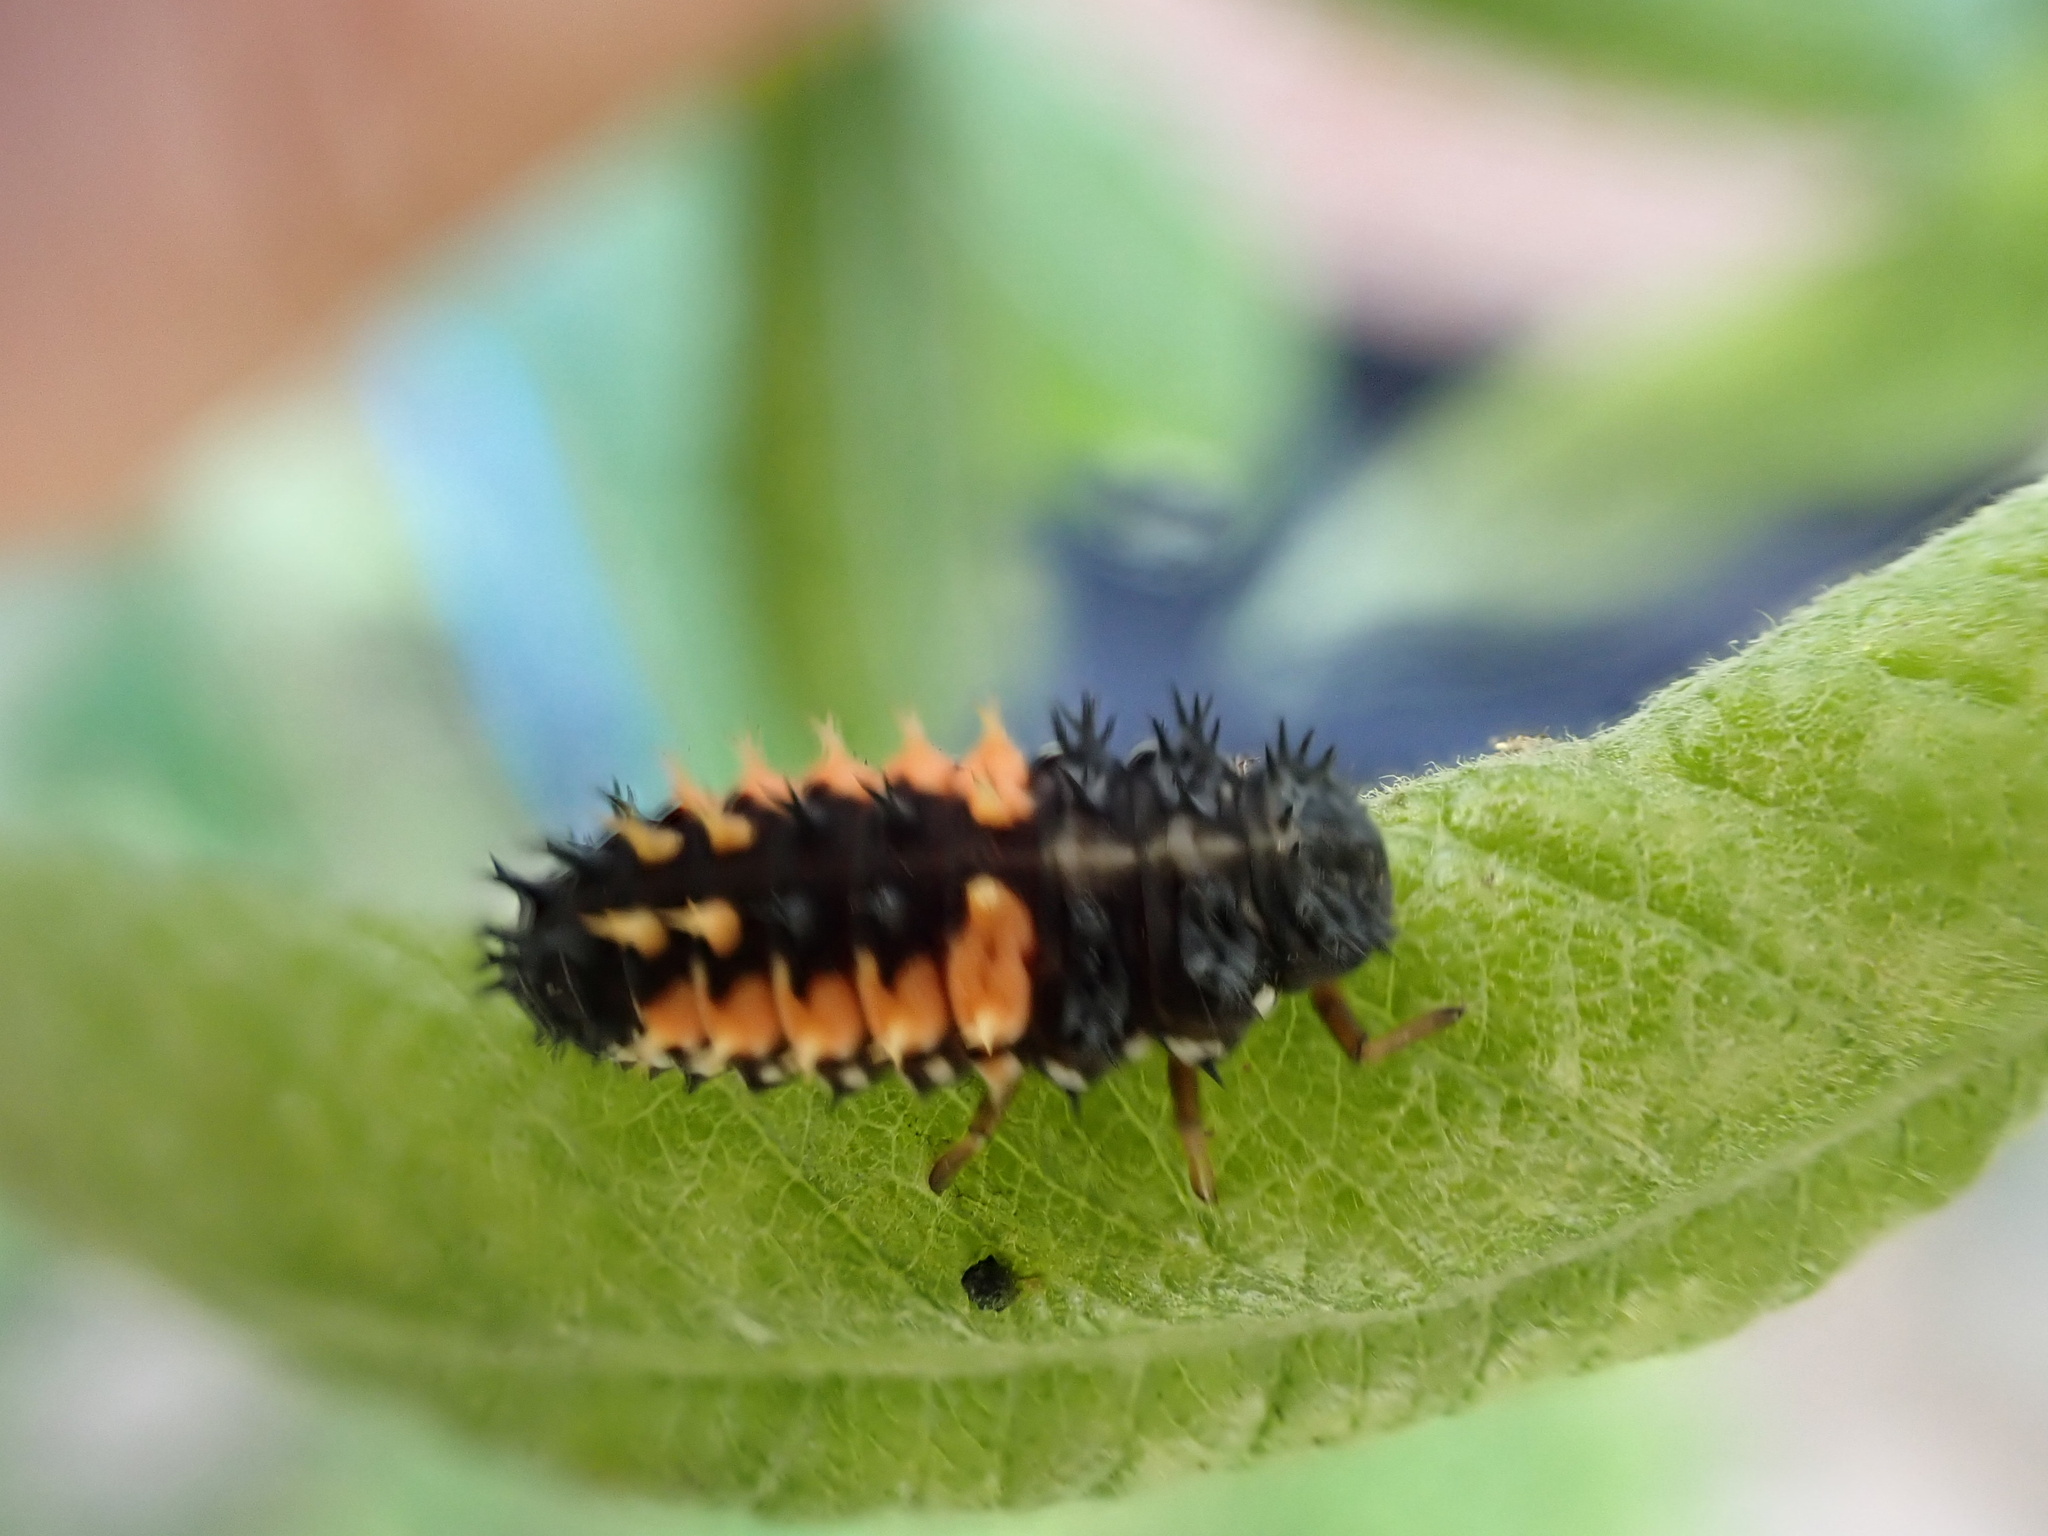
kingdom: Animalia
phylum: Arthropoda
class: Insecta
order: Coleoptera
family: Coccinellidae
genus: Harmonia
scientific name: Harmonia axyridis
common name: Harlequin ladybird
